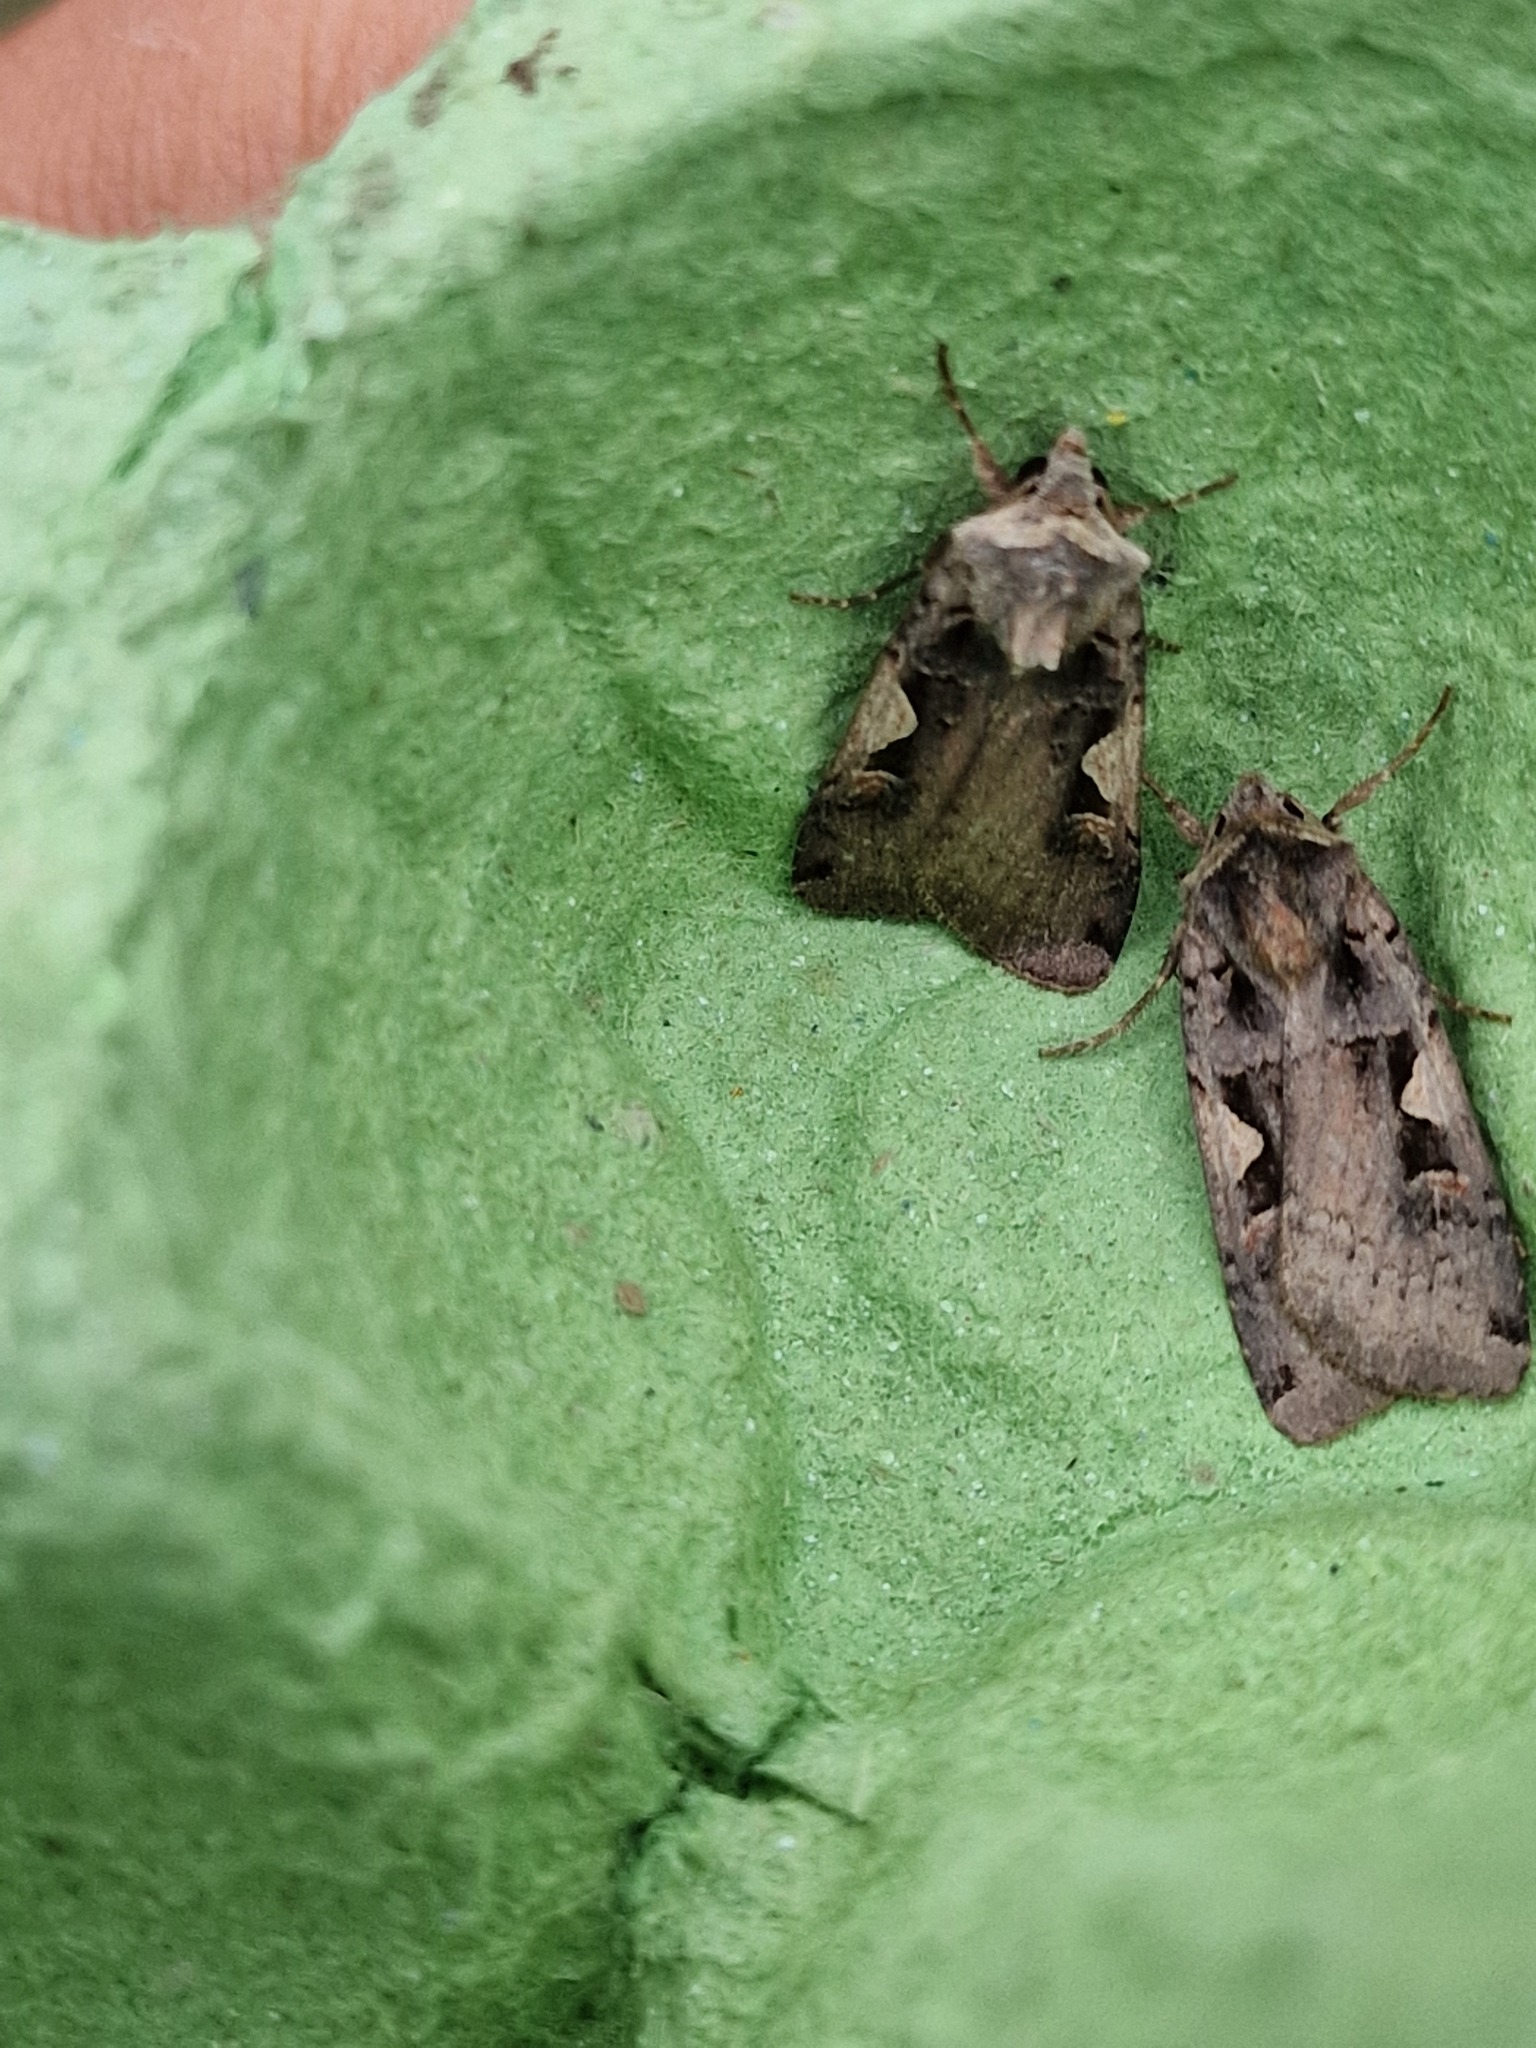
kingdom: Animalia
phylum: Arthropoda
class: Insecta
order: Lepidoptera
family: Noctuidae
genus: Xestia
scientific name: Xestia c-nigrum
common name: Setaceous hebrew character
